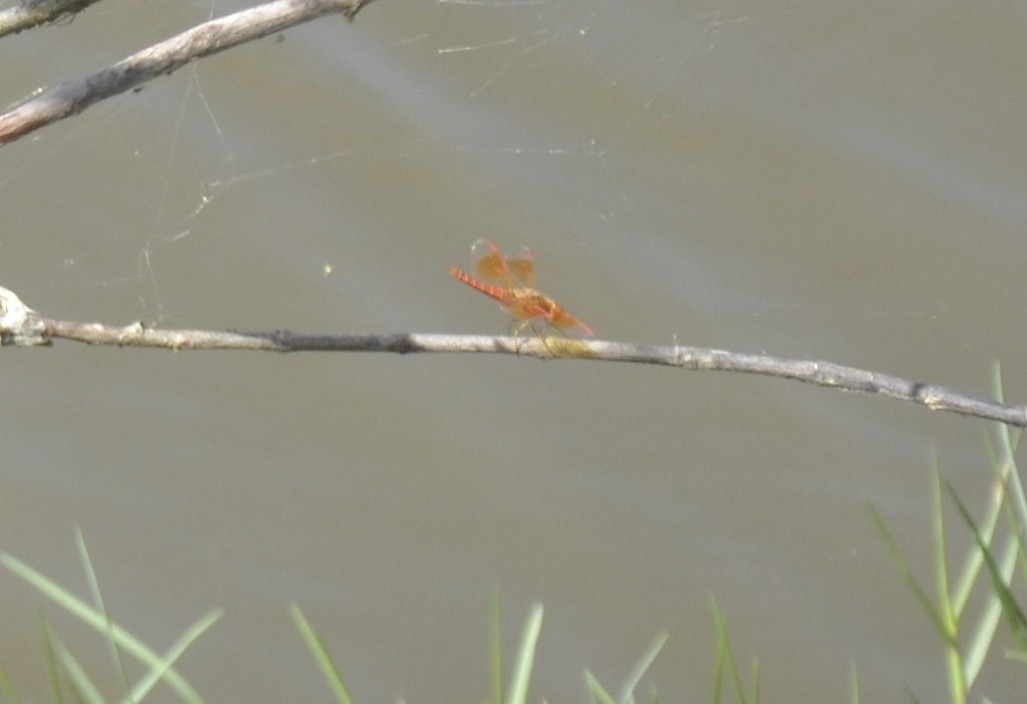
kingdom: Animalia
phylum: Arthropoda
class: Insecta
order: Odonata
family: Libellulidae
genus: Brachythemis
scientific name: Brachythemis contaminata
